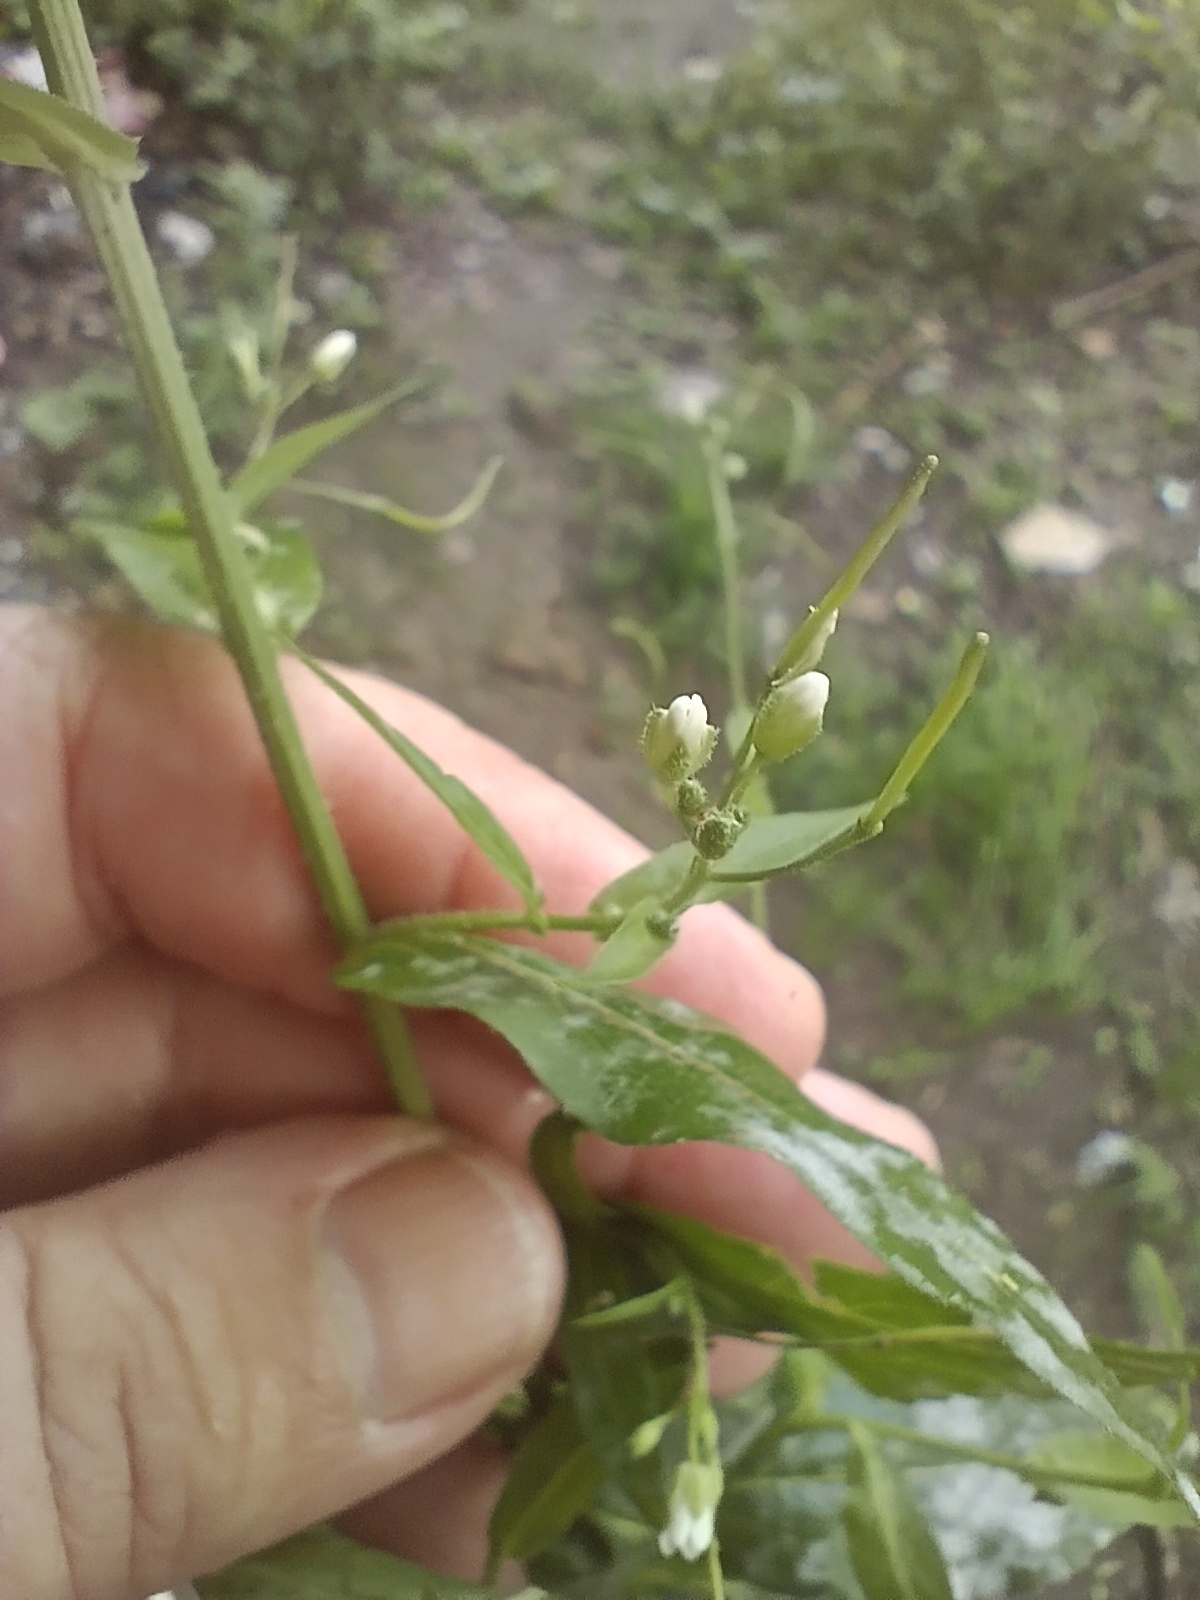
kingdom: Plantae
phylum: Tracheophyta
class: Magnoliopsida
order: Brassicales
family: Brassicaceae
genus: Catolobus
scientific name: Catolobus pendulus
